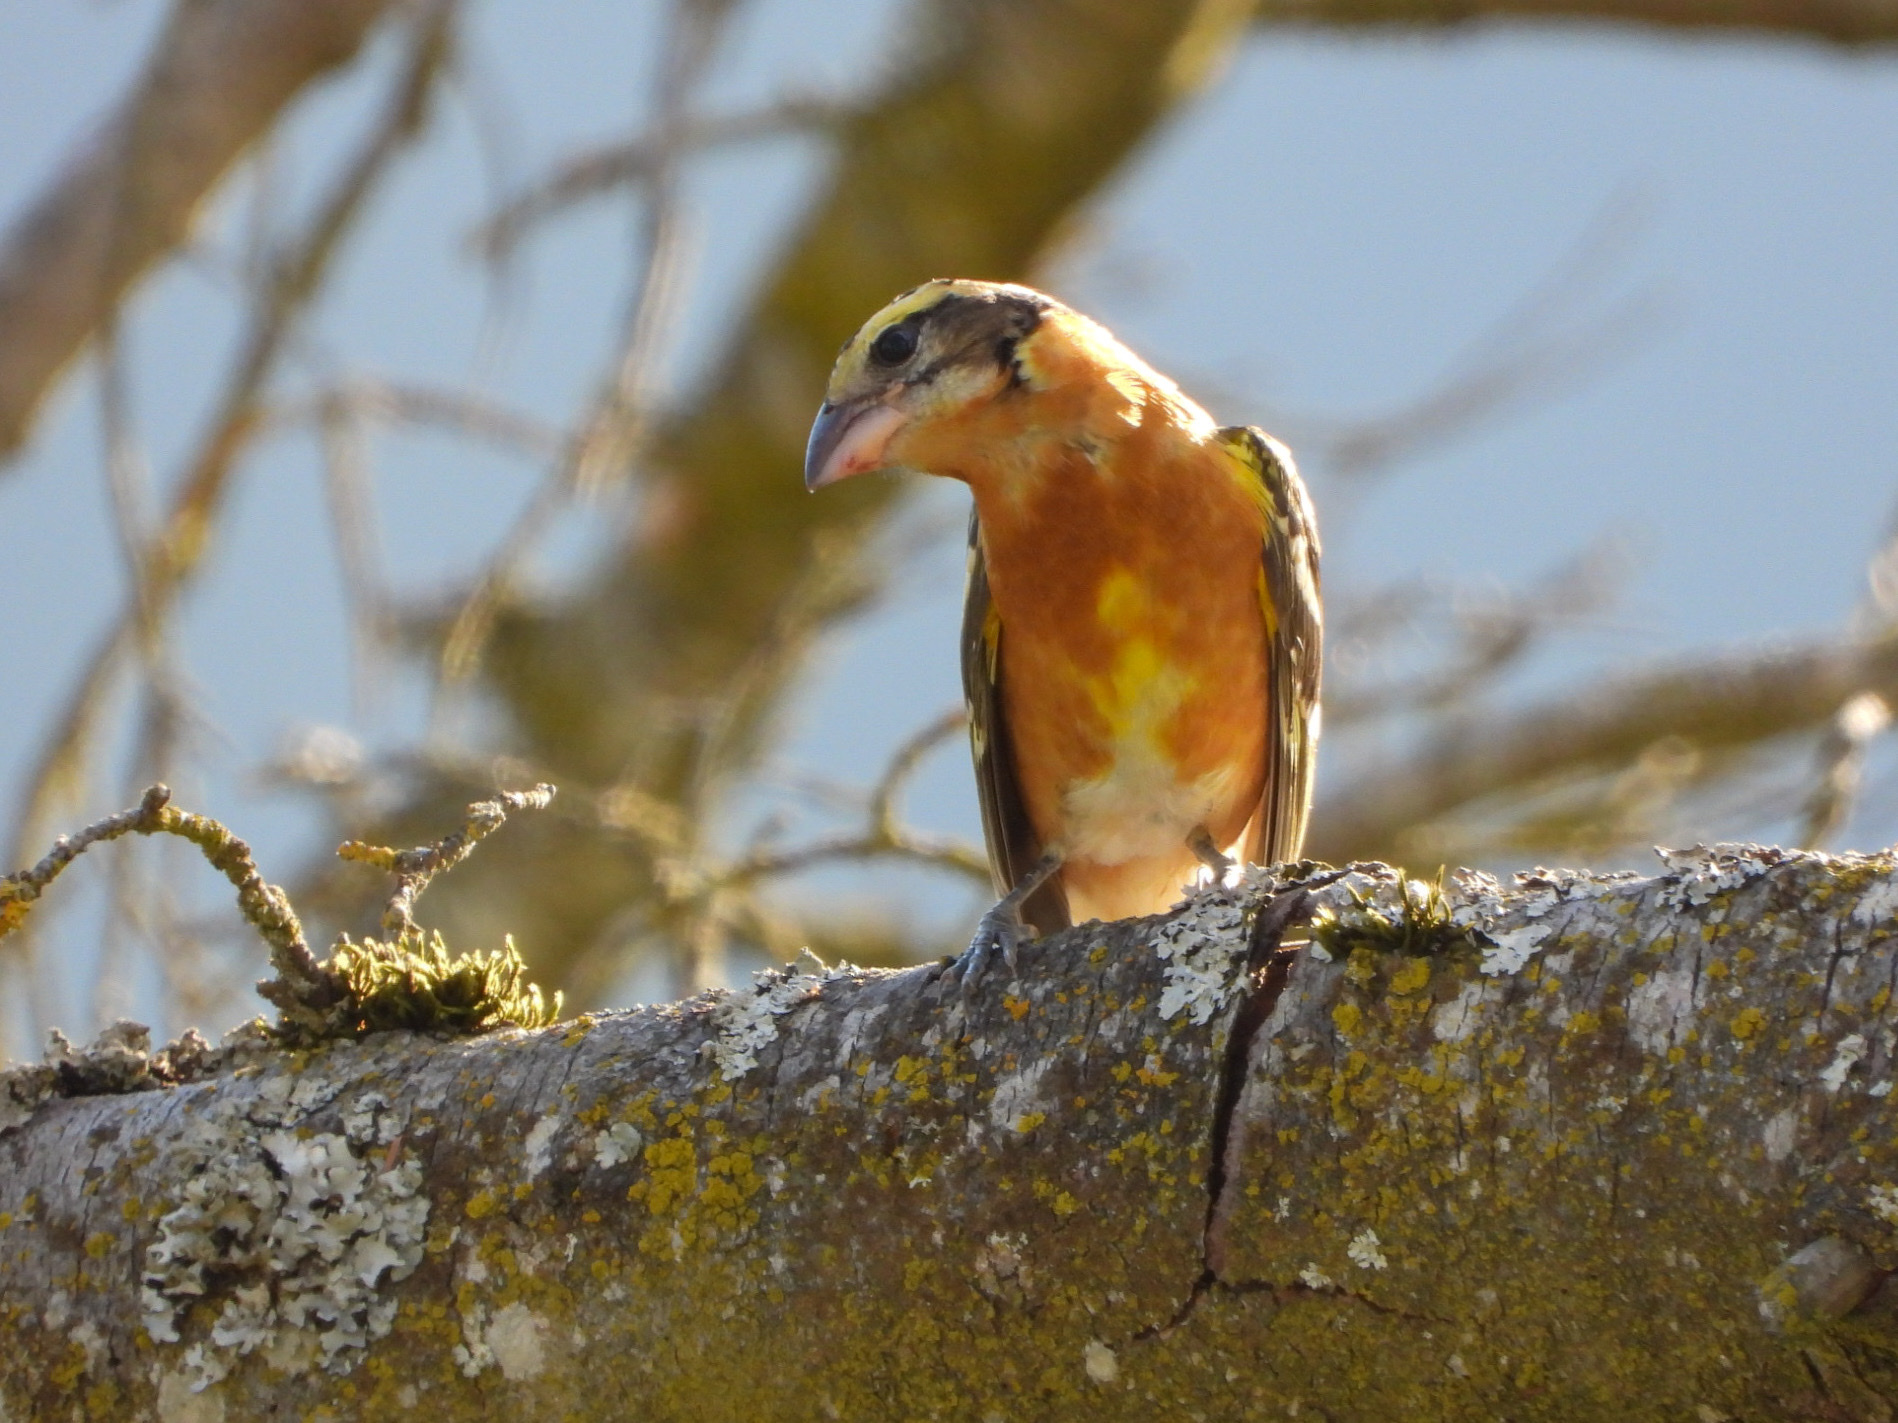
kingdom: Animalia
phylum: Chordata
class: Aves
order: Passeriformes
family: Cardinalidae
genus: Pheucticus
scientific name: Pheucticus melanocephalus
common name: Black-headed grosbeak
